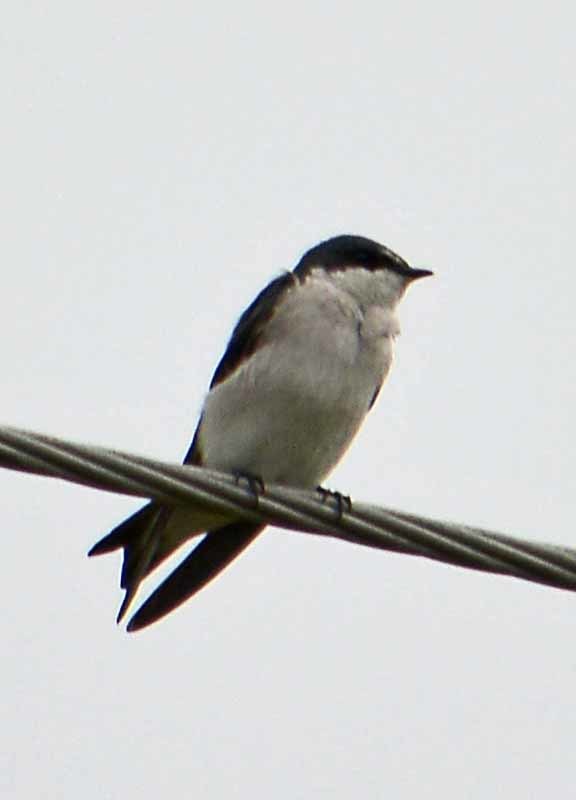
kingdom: Animalia
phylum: Chordata
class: Aves
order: Passeriformes
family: Hirundinidae
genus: Tachycineta
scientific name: Tachycineta albilinea
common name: Mangrove swallow
